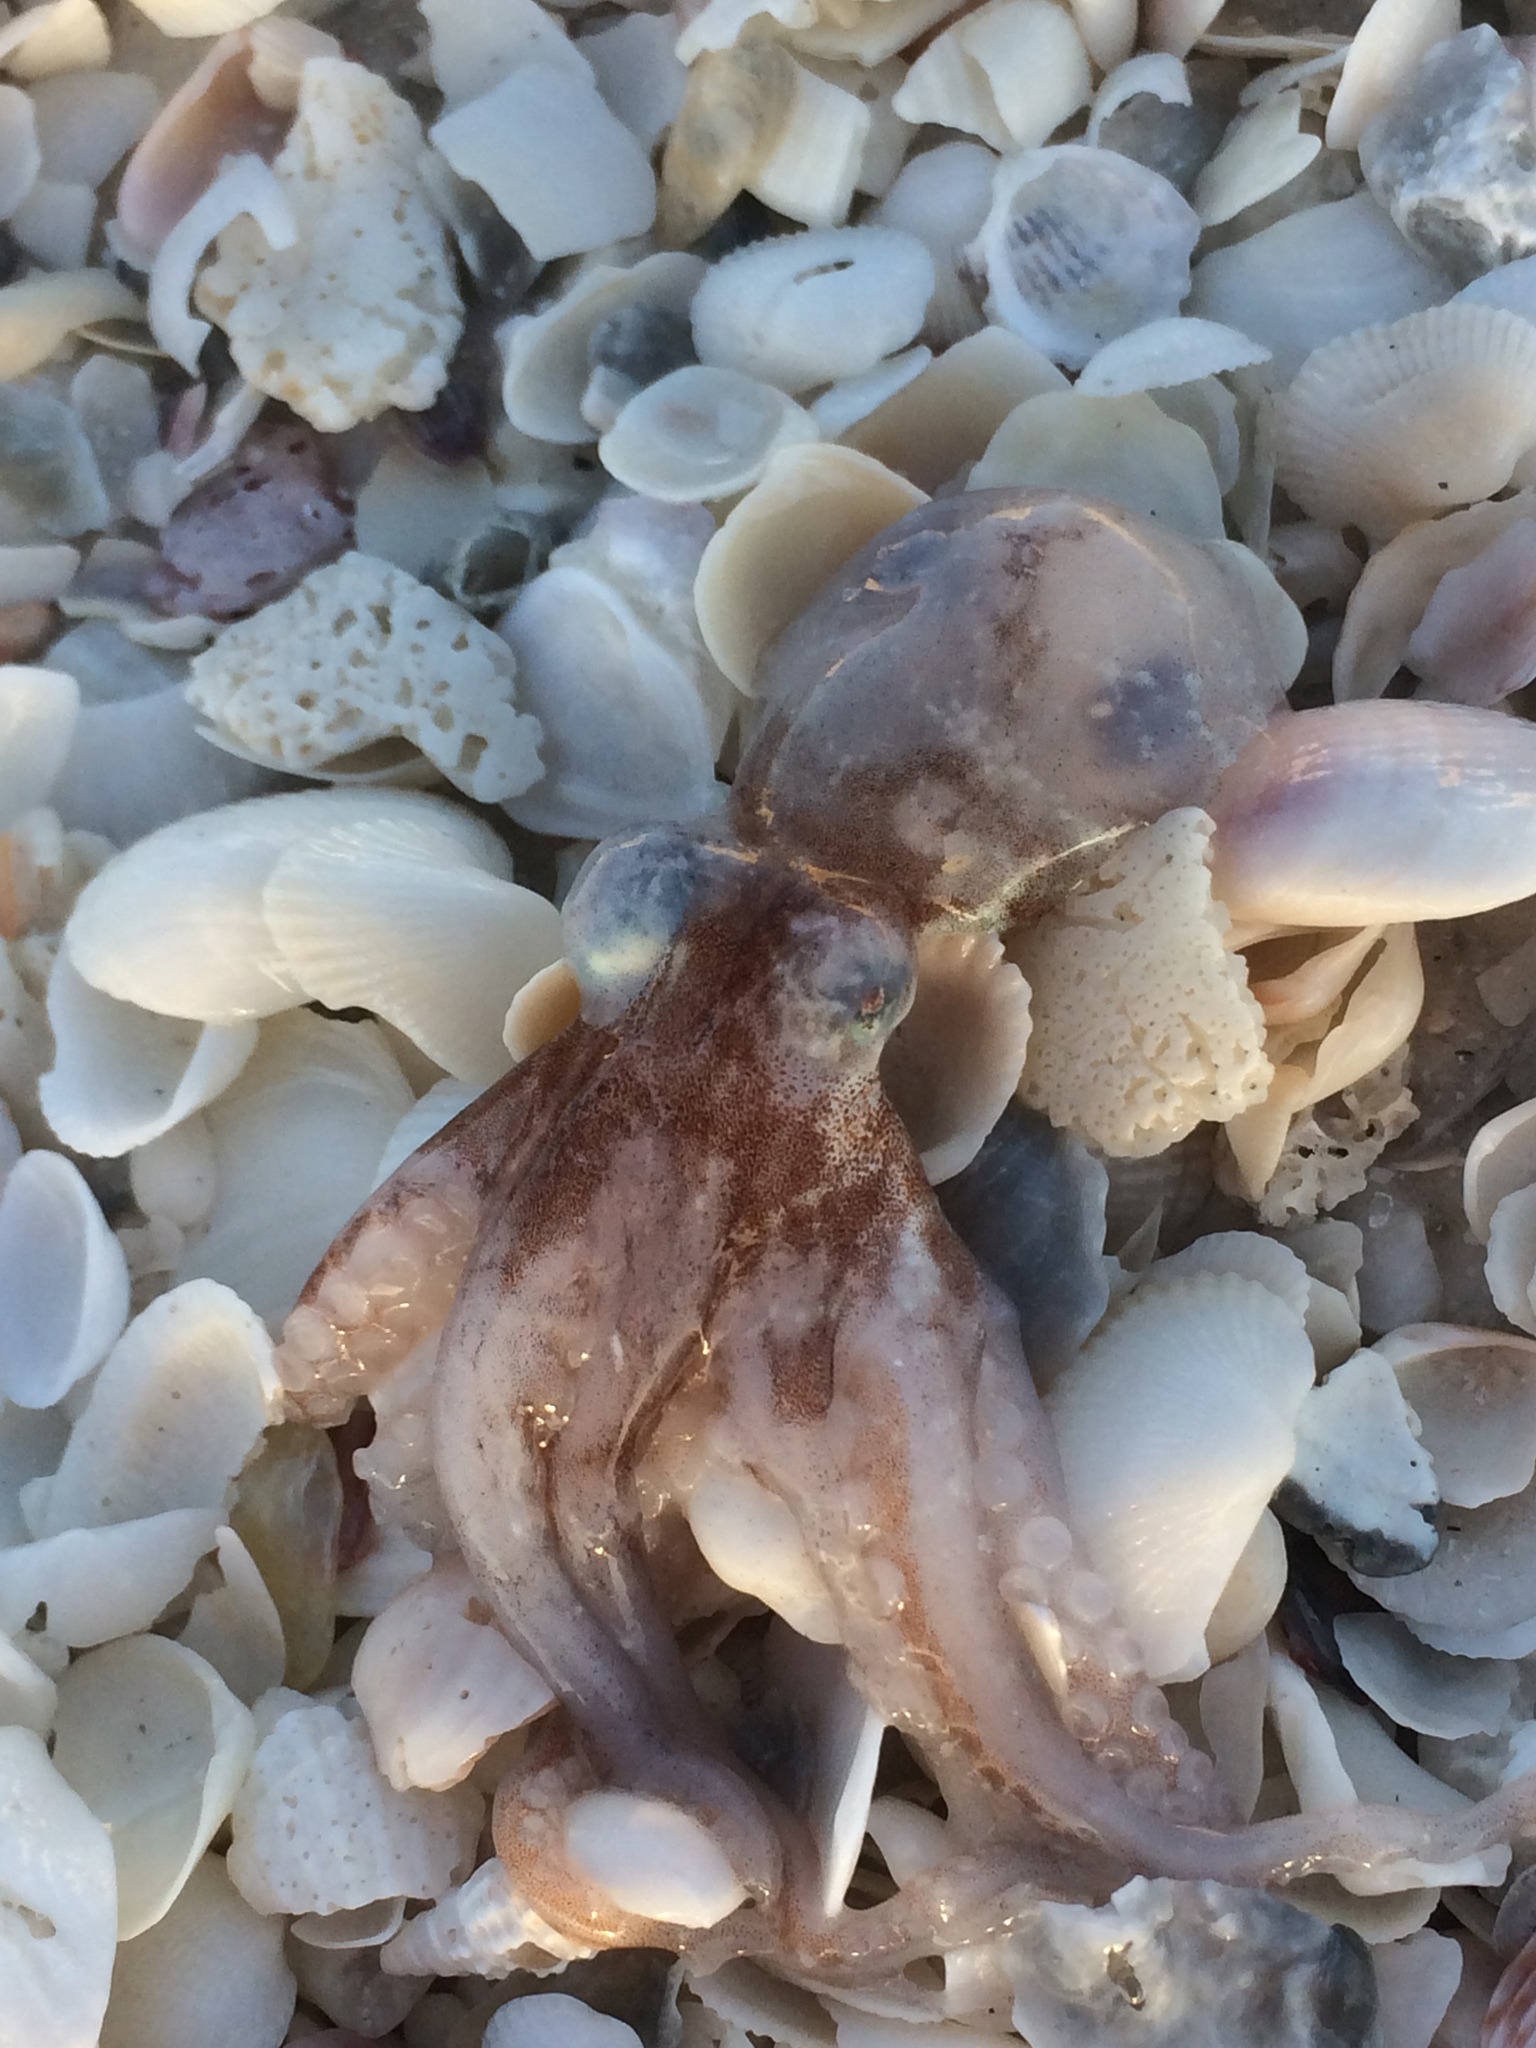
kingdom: Animalia
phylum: Mollusca
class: Cephalopoda
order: Octopoda
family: Octopodidae
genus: Paroctopus
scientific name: Paroctopus mercatoris
